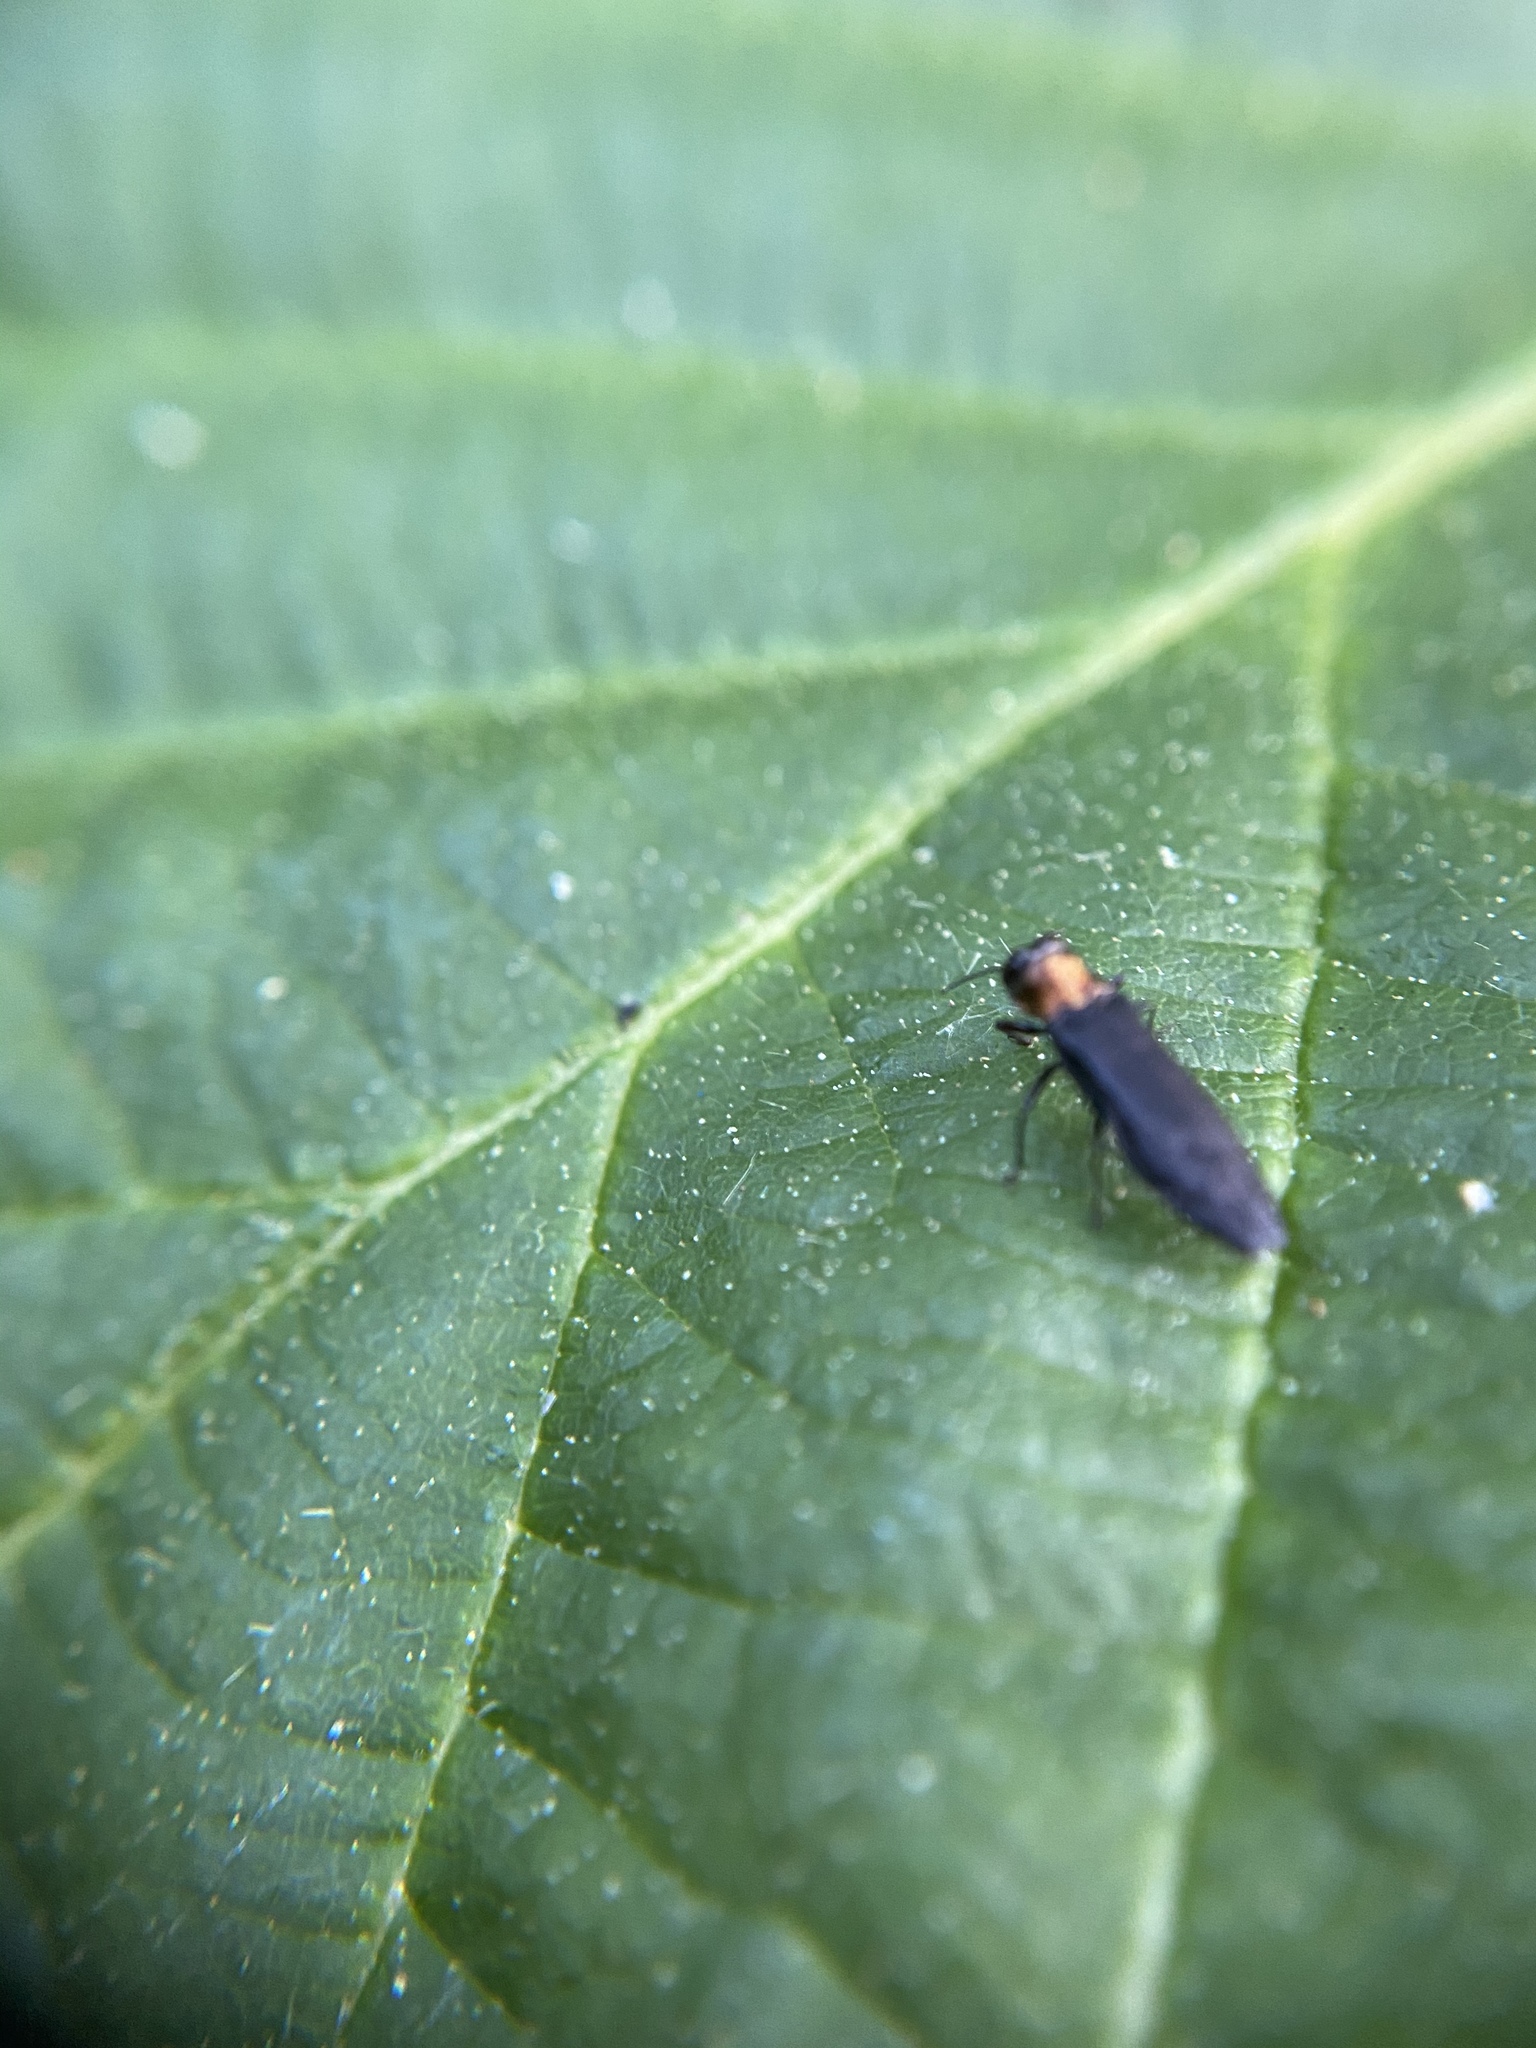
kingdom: Animalia
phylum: Arthropoda
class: Insecta
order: Coleoptera
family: Buprestidae
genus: Agrilus
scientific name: Agrilus ruficollis
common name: Red-necked cane borer beetle
